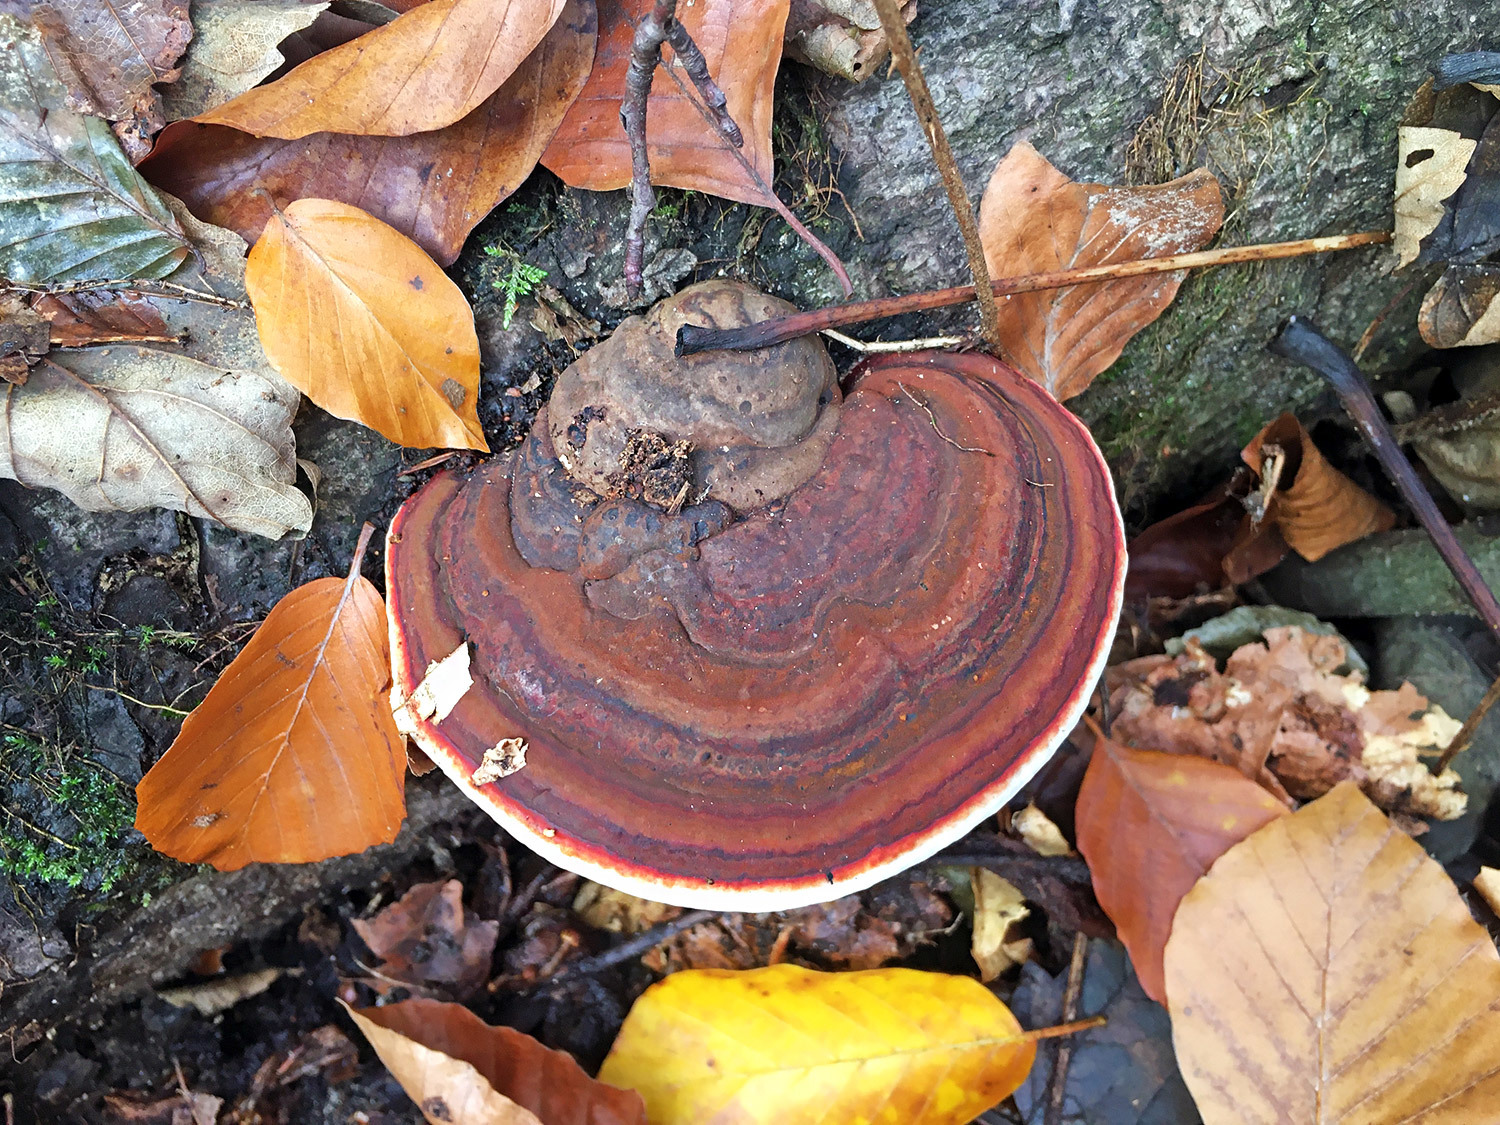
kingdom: Fungi
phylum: Basidiomycota
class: Agaricomycetes
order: Polyporales
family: Polyporaceae
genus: Fomes
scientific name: Fomes fomentarius
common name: Hoof fungus
